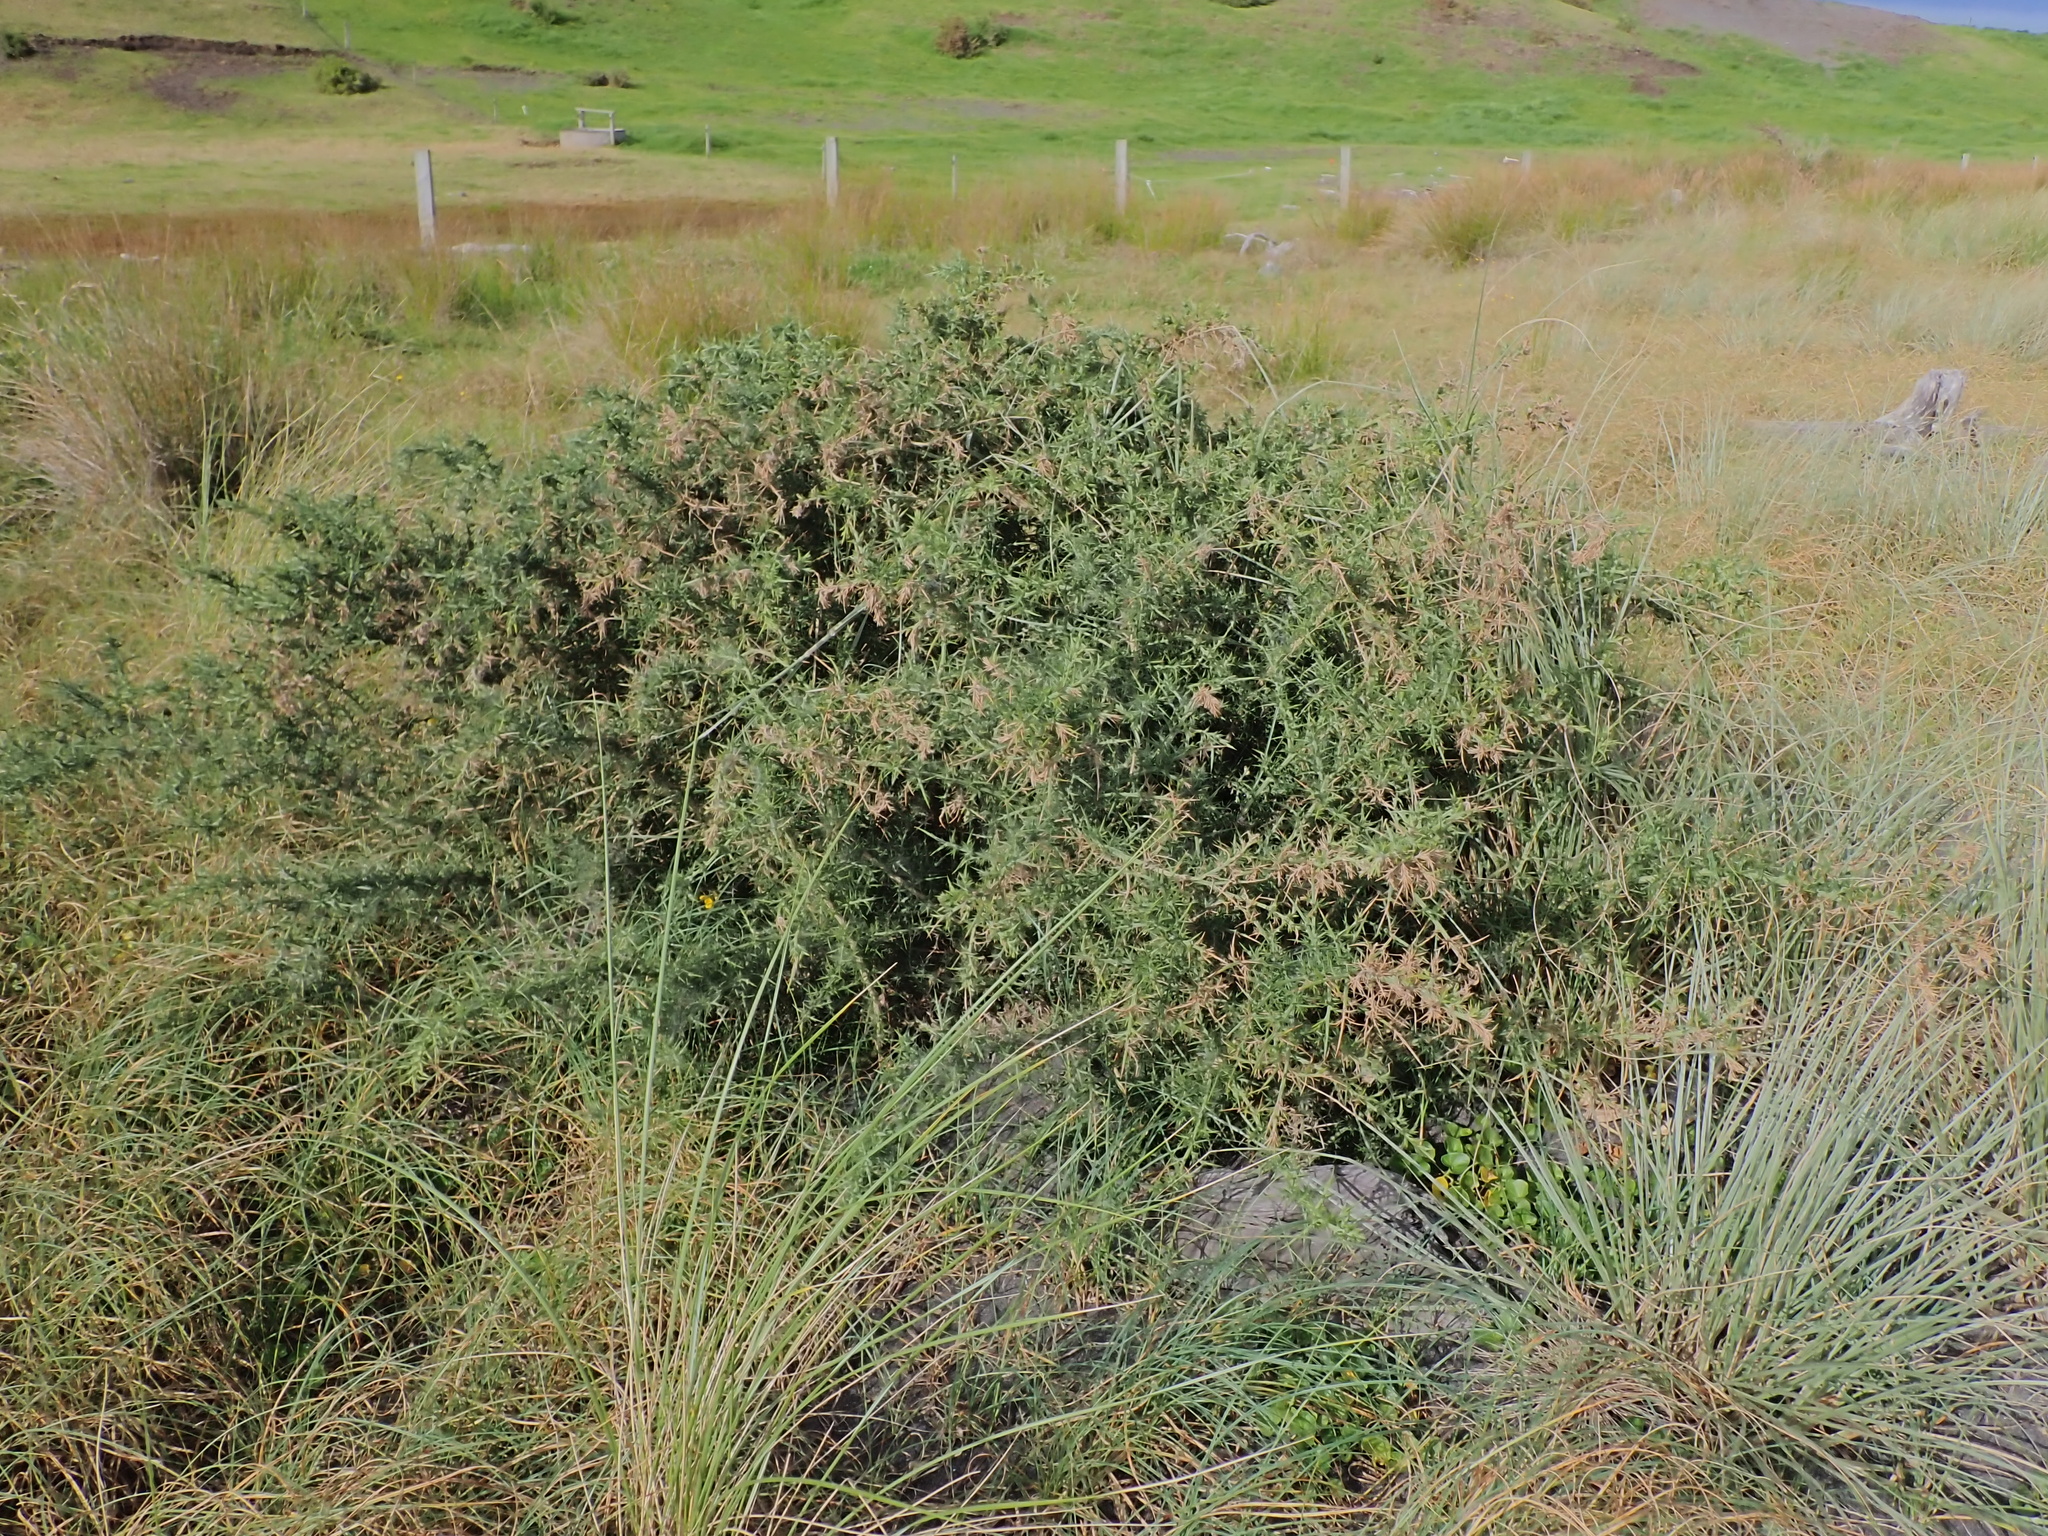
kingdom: Plantae
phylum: Tracheophyta
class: Magnoliopsida
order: Fabales
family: Fabaceae
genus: Ulex
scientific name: Ulex europaeus
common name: Common gorse
